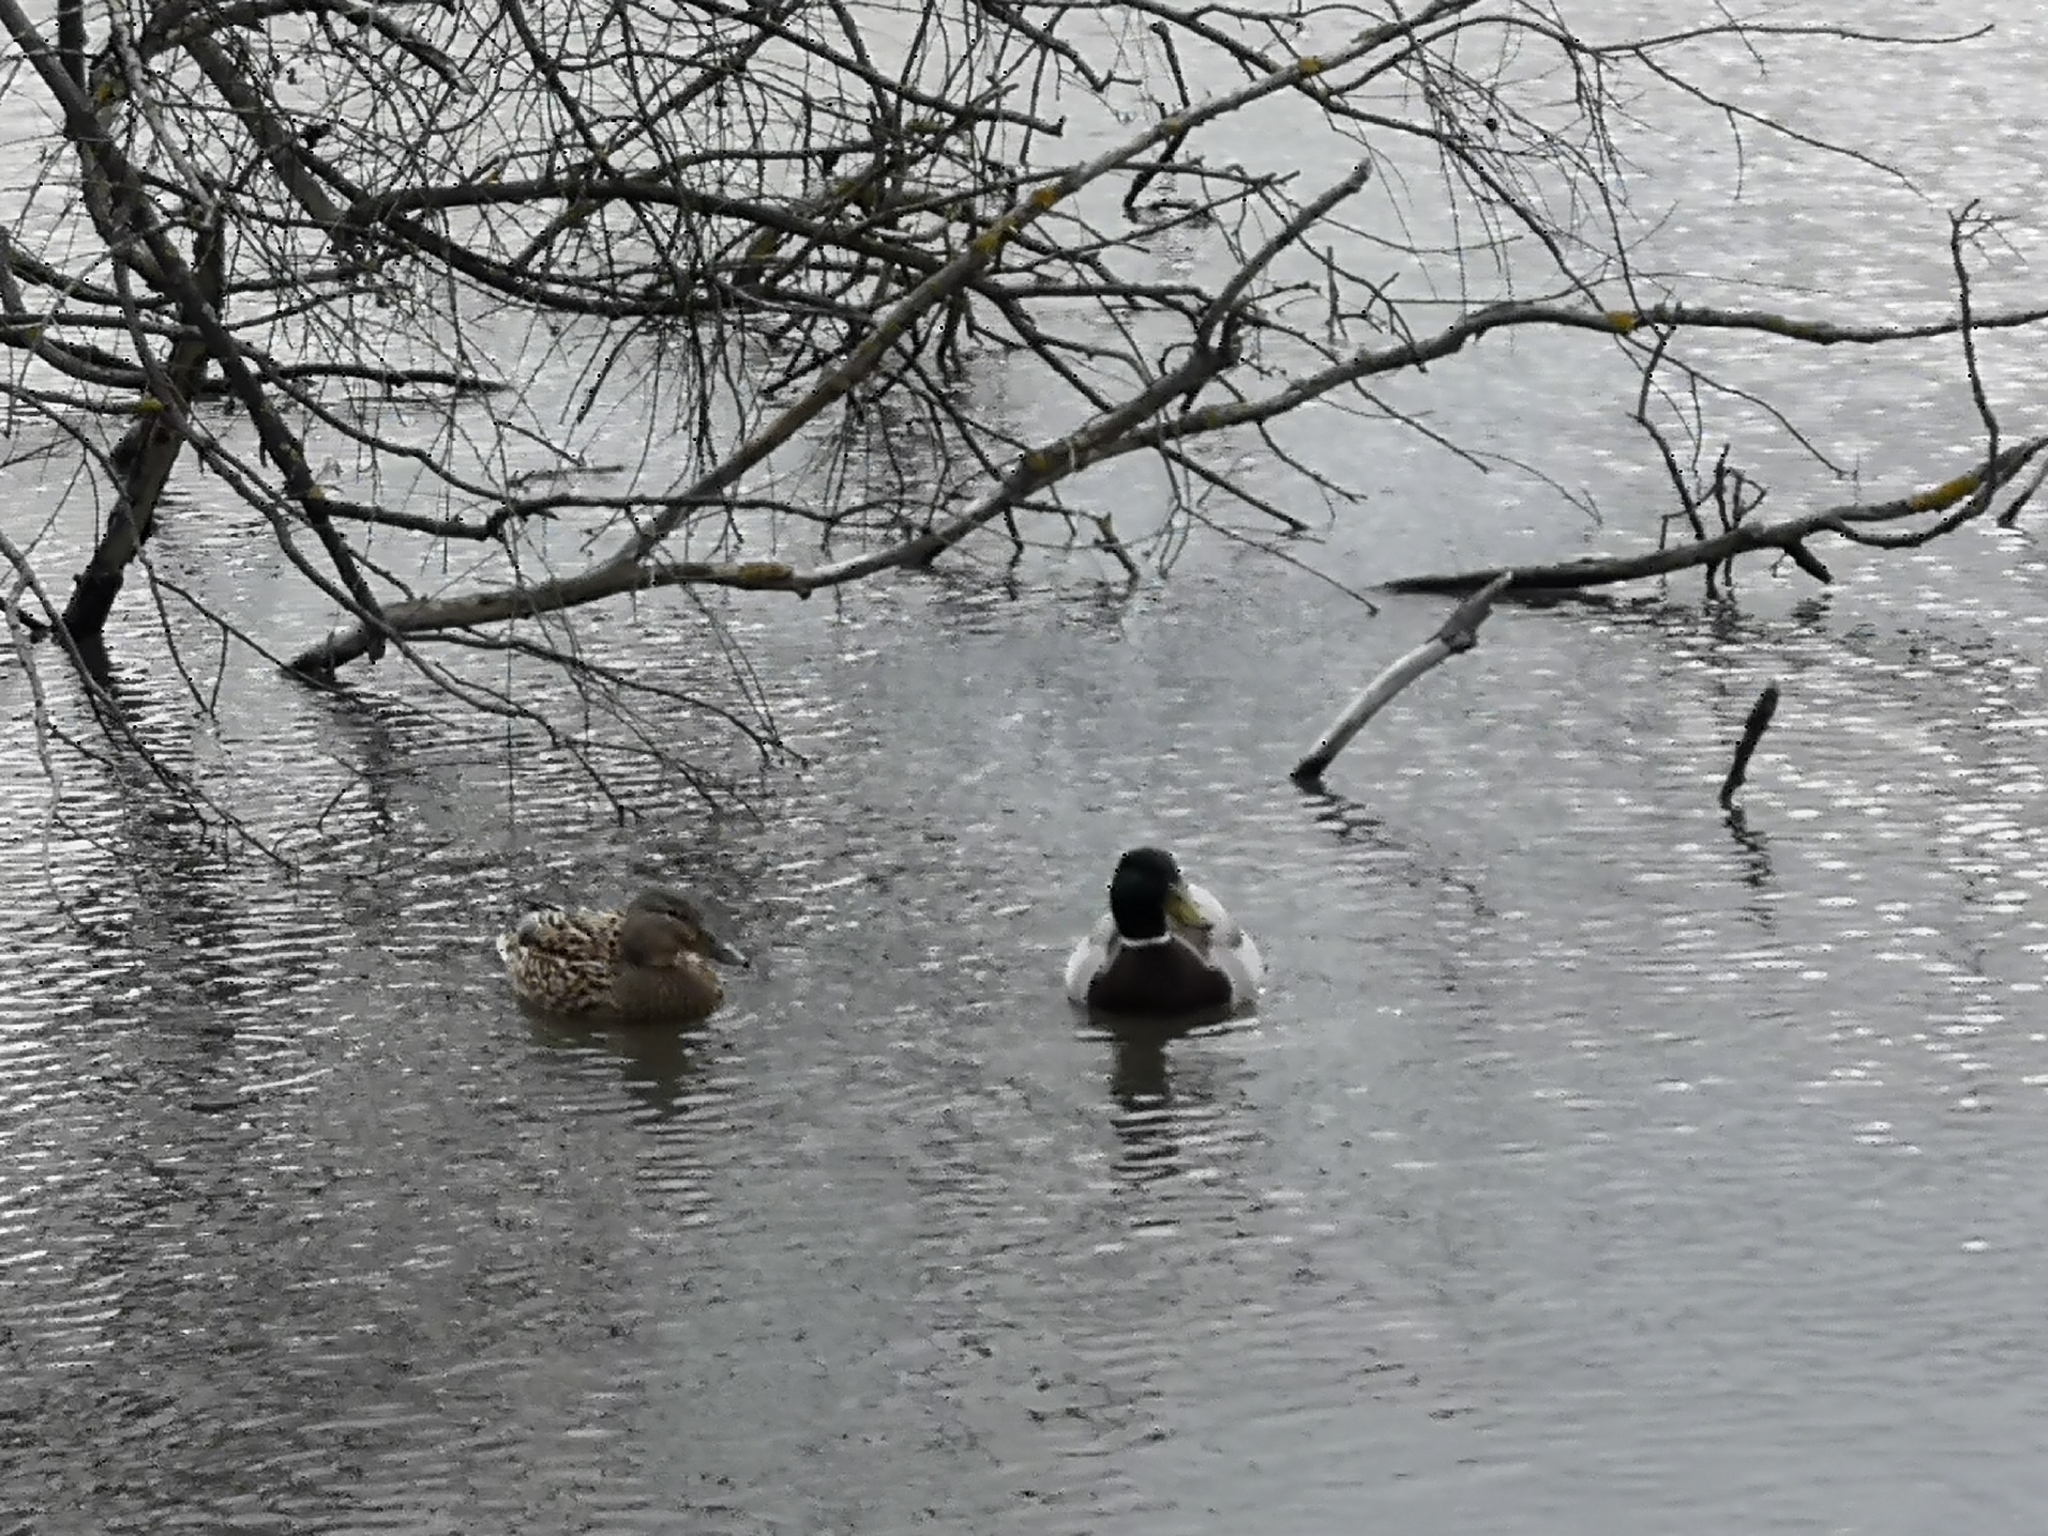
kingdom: Animalia
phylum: Chordata
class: Aves
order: Anseriformes
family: Anatidae
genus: Anas
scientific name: Anas platyrhynchos
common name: Mallard
